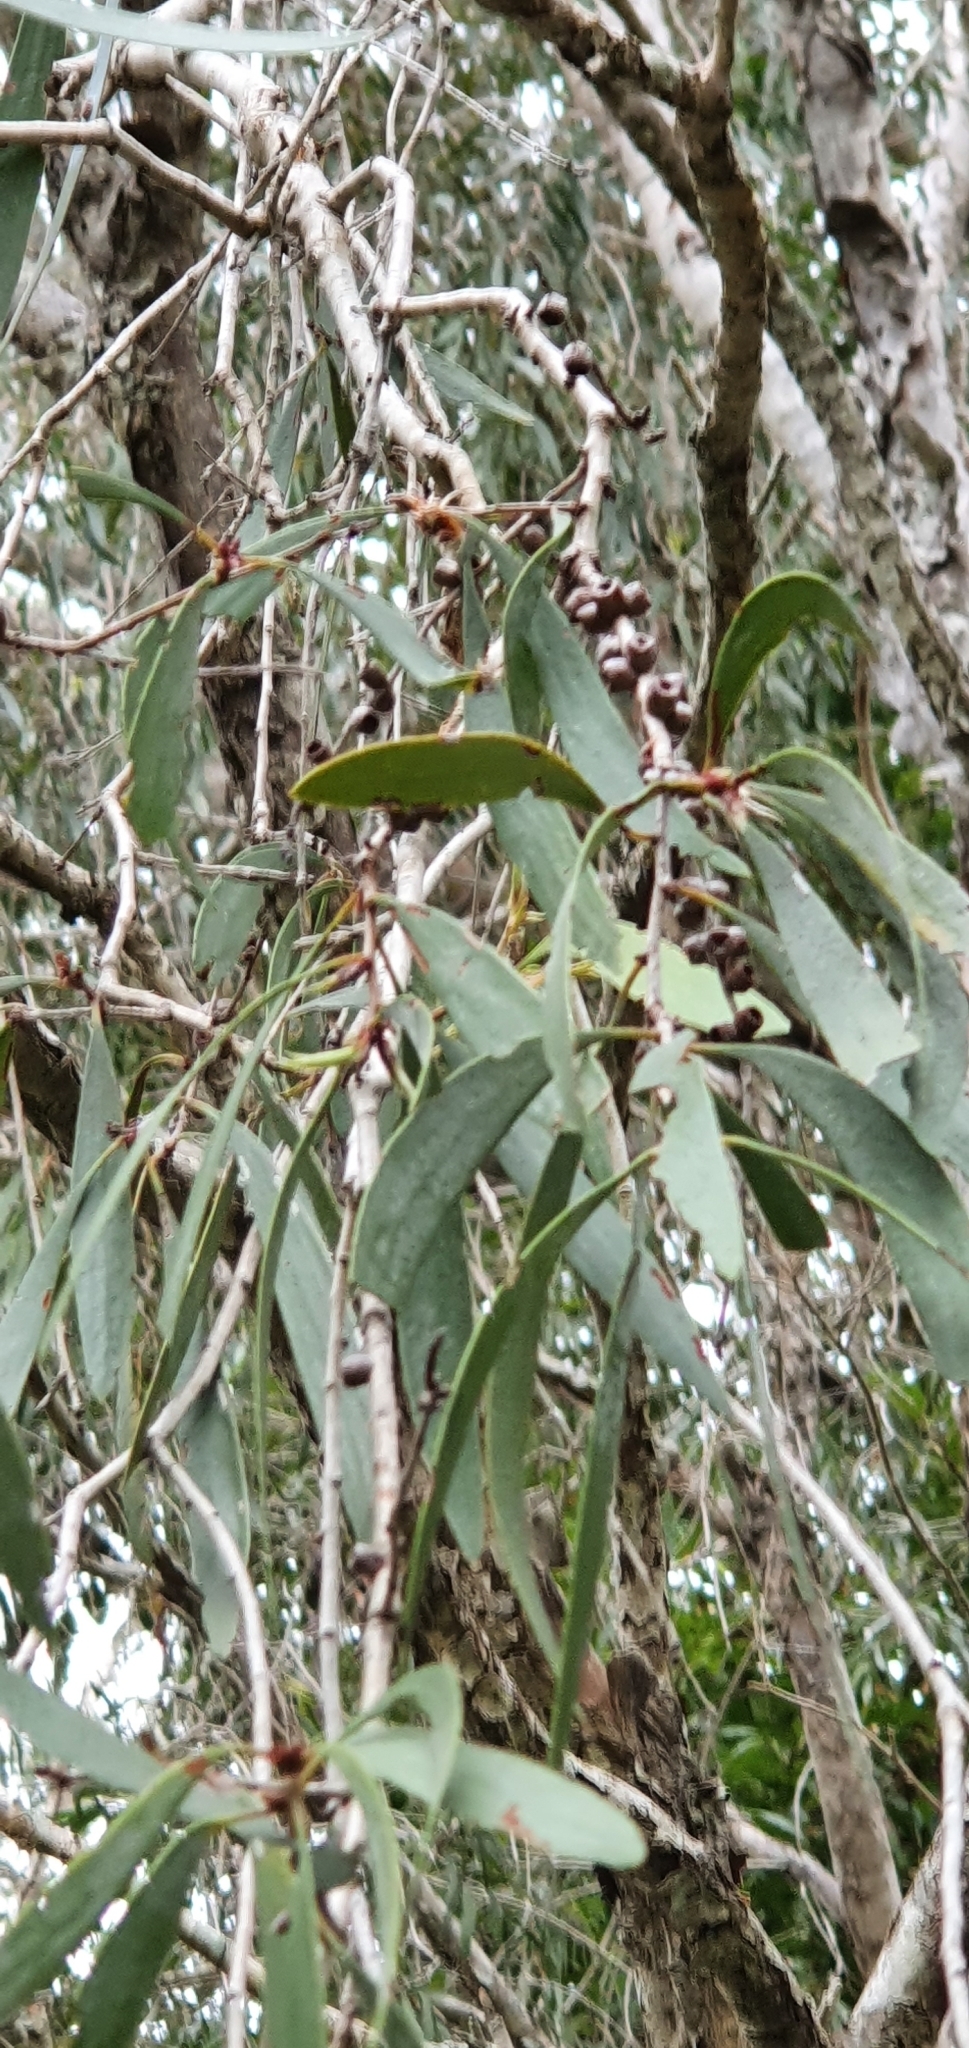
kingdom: Plantae
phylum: Tracheophyta
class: Magnoliopsida
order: Myrtales
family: Myrtaceae
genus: Melaleuca
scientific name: Melaleuca fluviatilis
